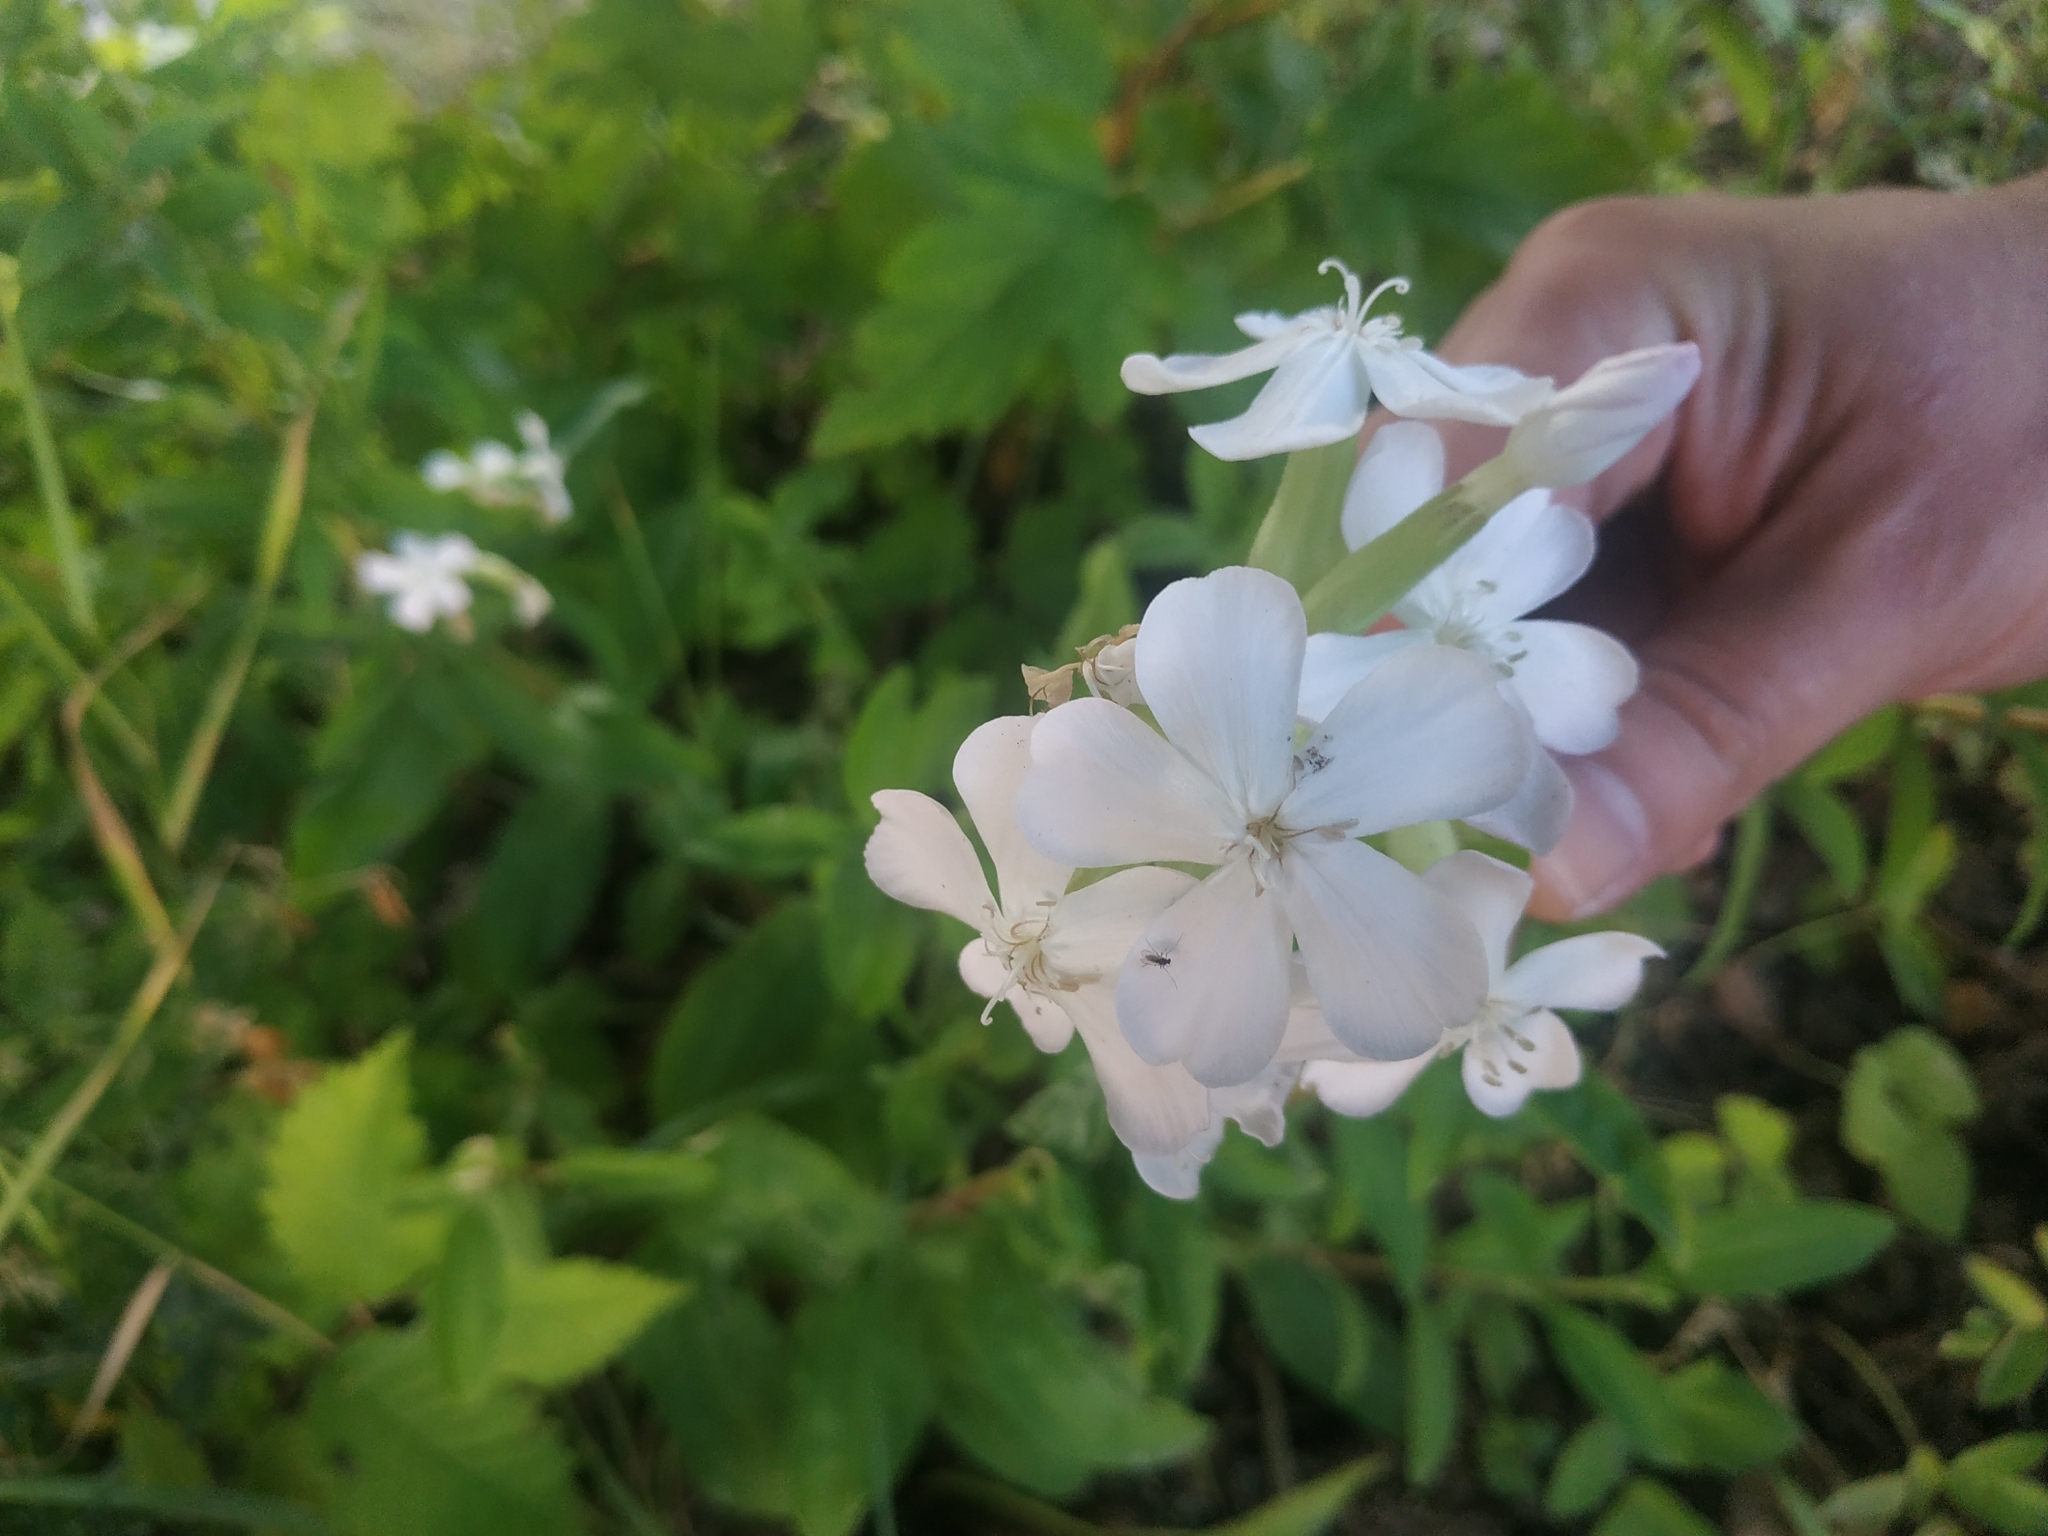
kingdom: Plantae
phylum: Tracheophyta
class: Magnoliopsida
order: Caryophyllales
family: Caryophyllaceae
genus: Saponaria
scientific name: Saponaria officinalis
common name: Soapwort
